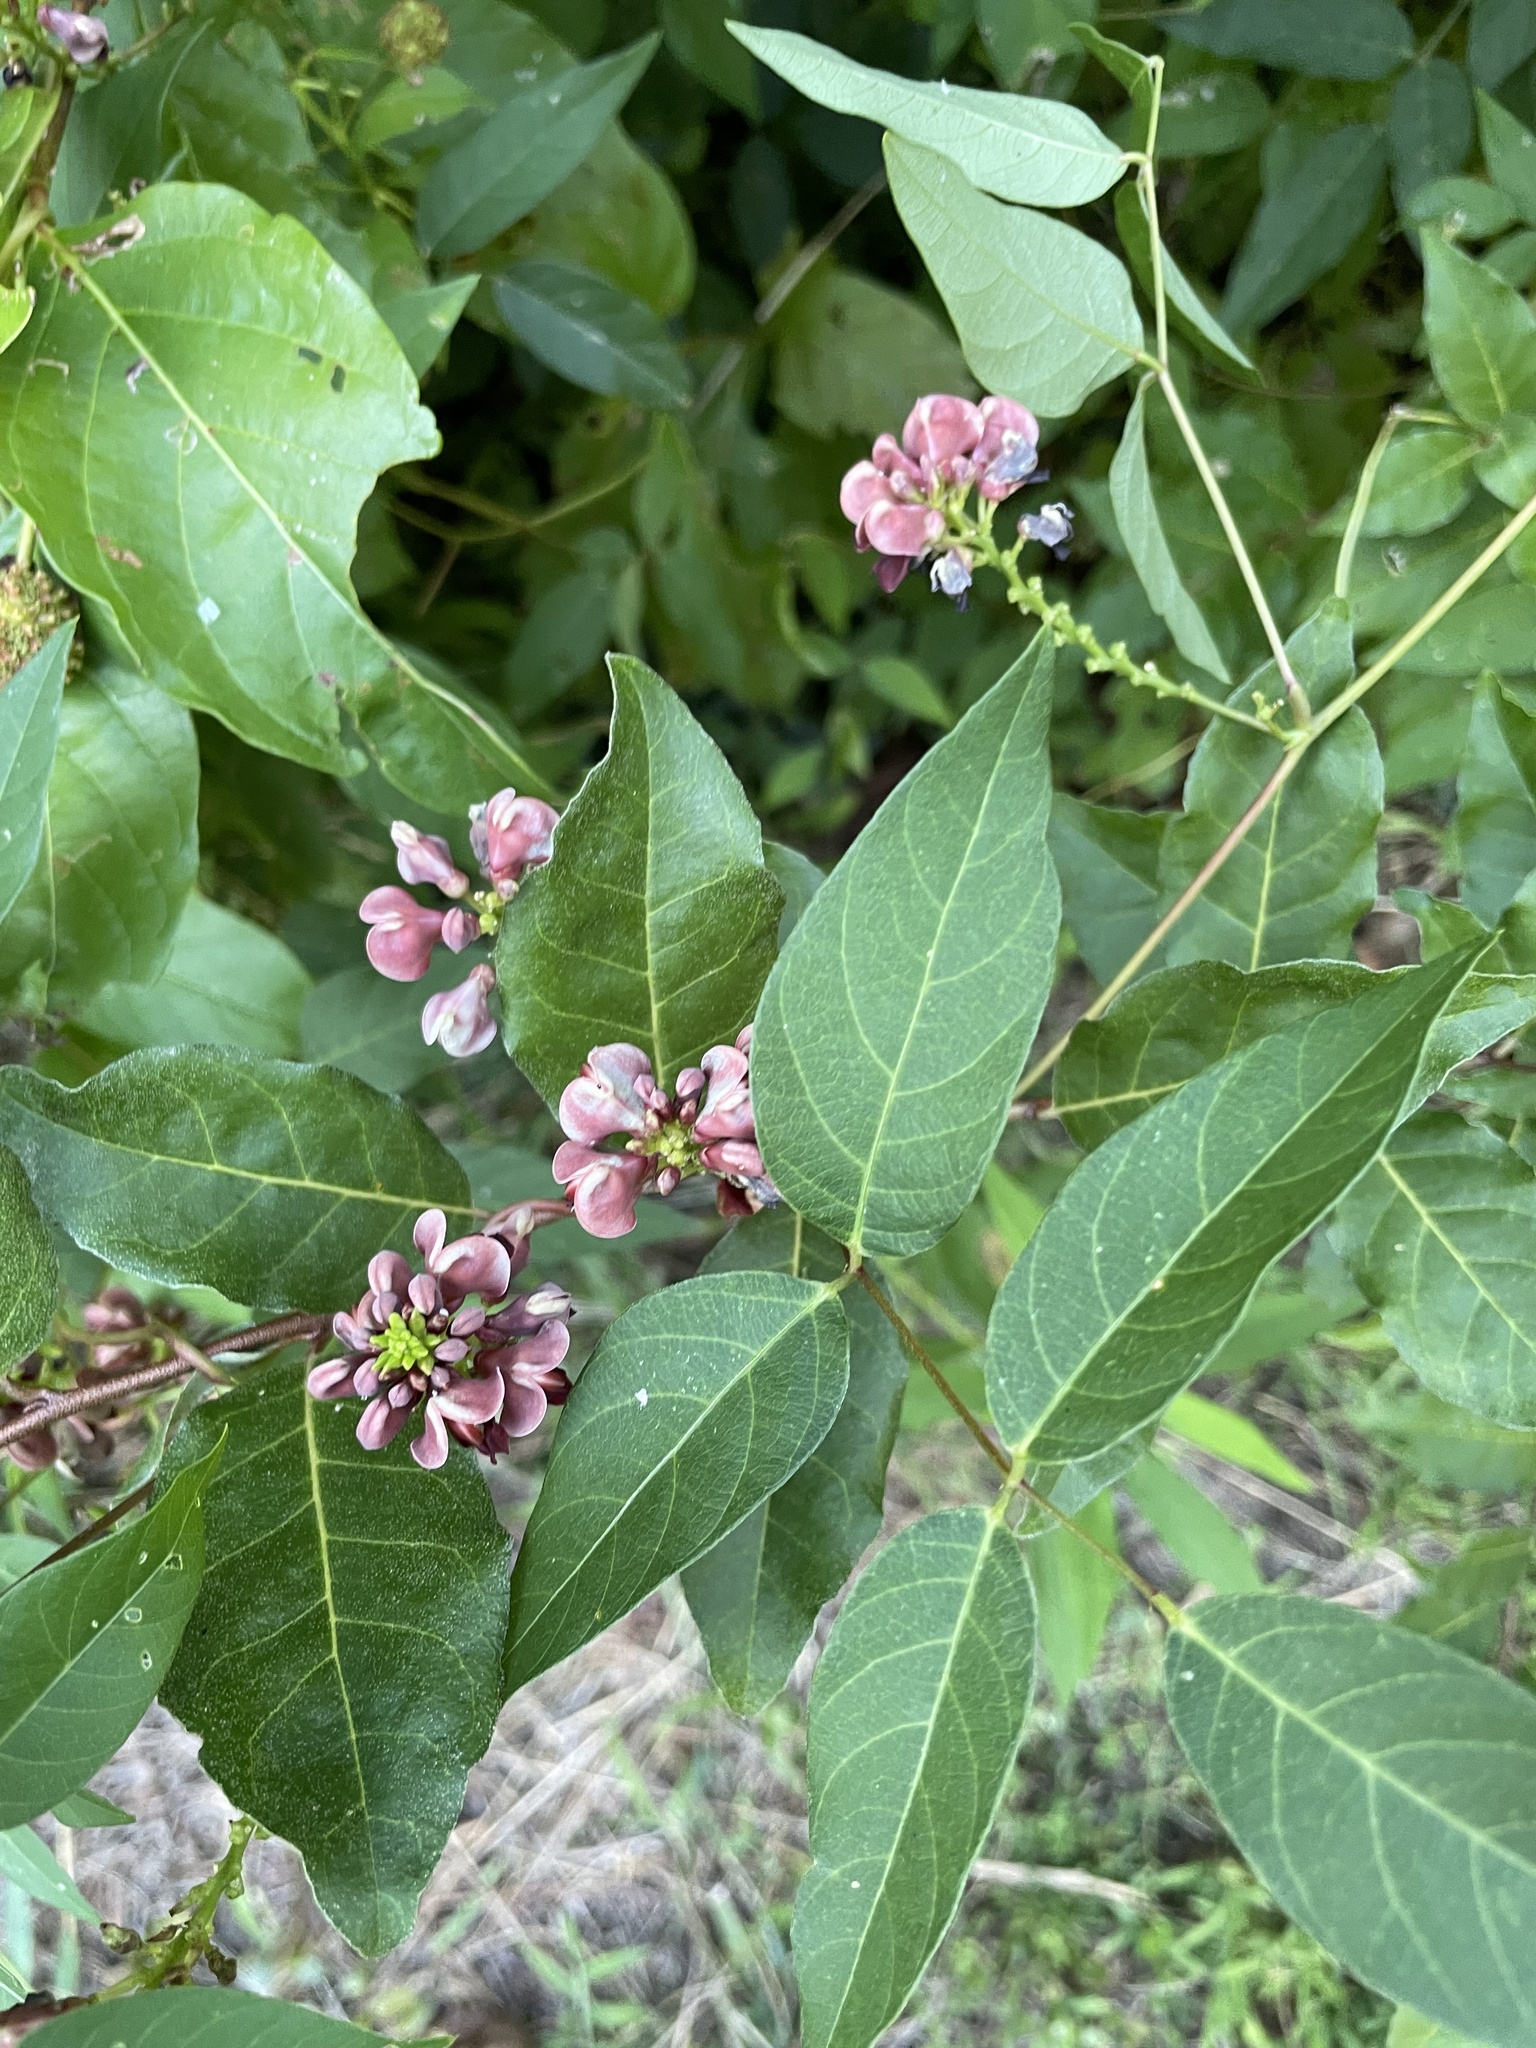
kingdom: Plantae
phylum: Tracheophyta
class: Magnoliopsida
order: Fabales
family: Fabaceae
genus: Apios
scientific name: Apios americana
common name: American potato-bean
